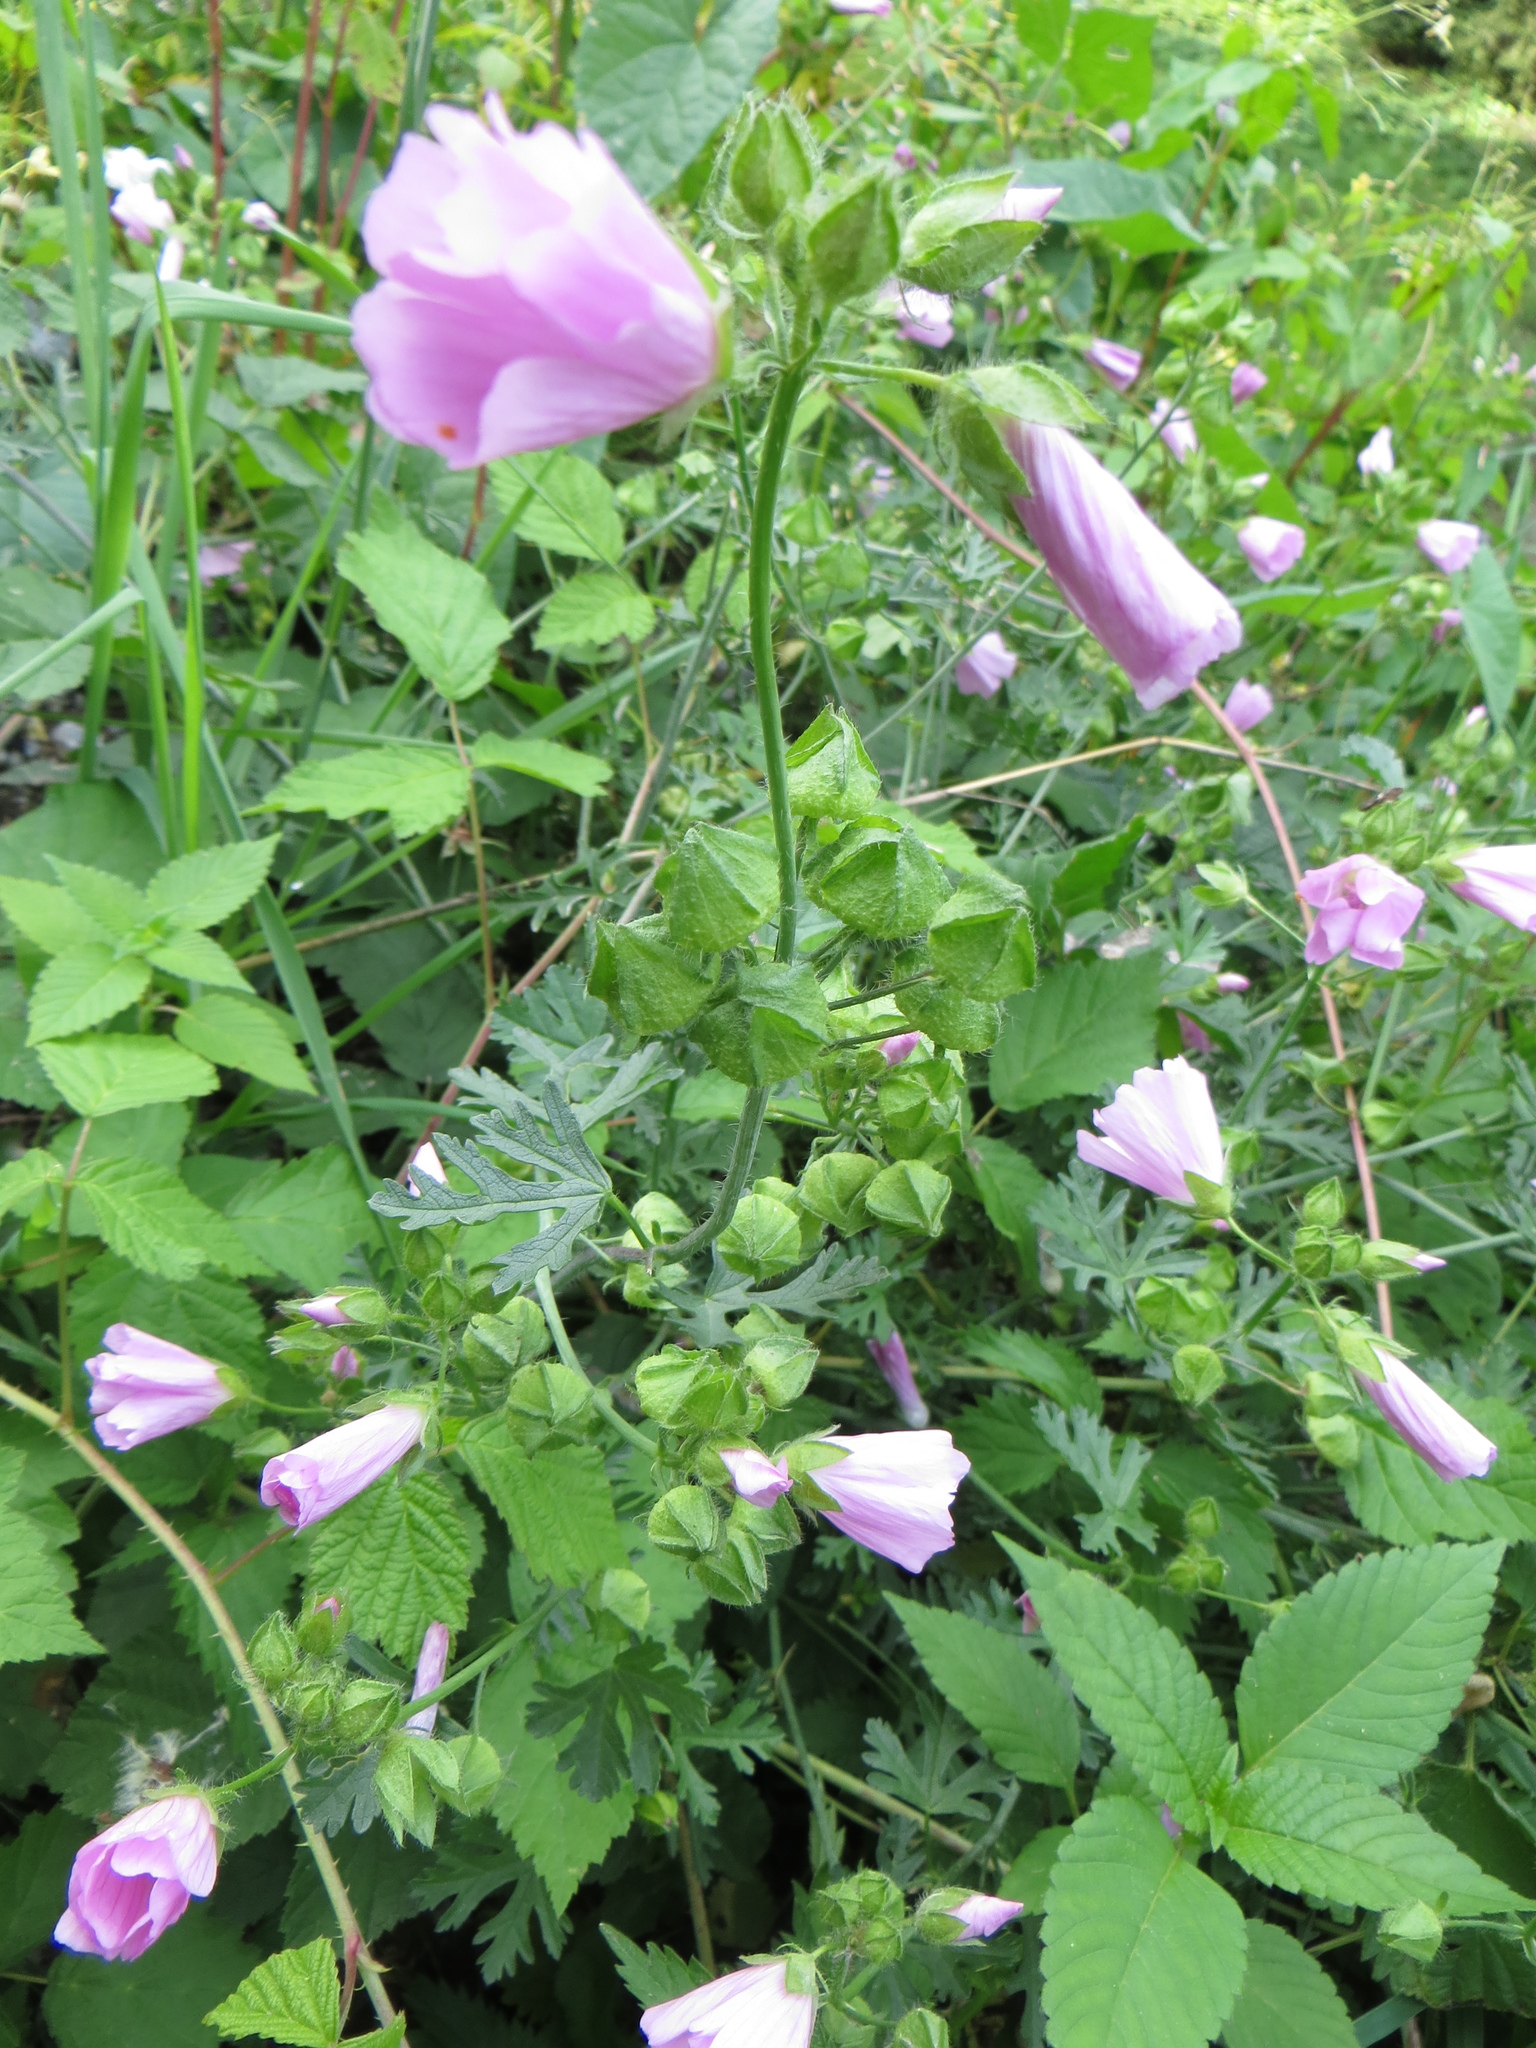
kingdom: Plantae
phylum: Tracheophyta
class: Magnoliopsida
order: Malvales
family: Malvaceae
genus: Malva
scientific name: Malva moschata
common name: Musk mallow
